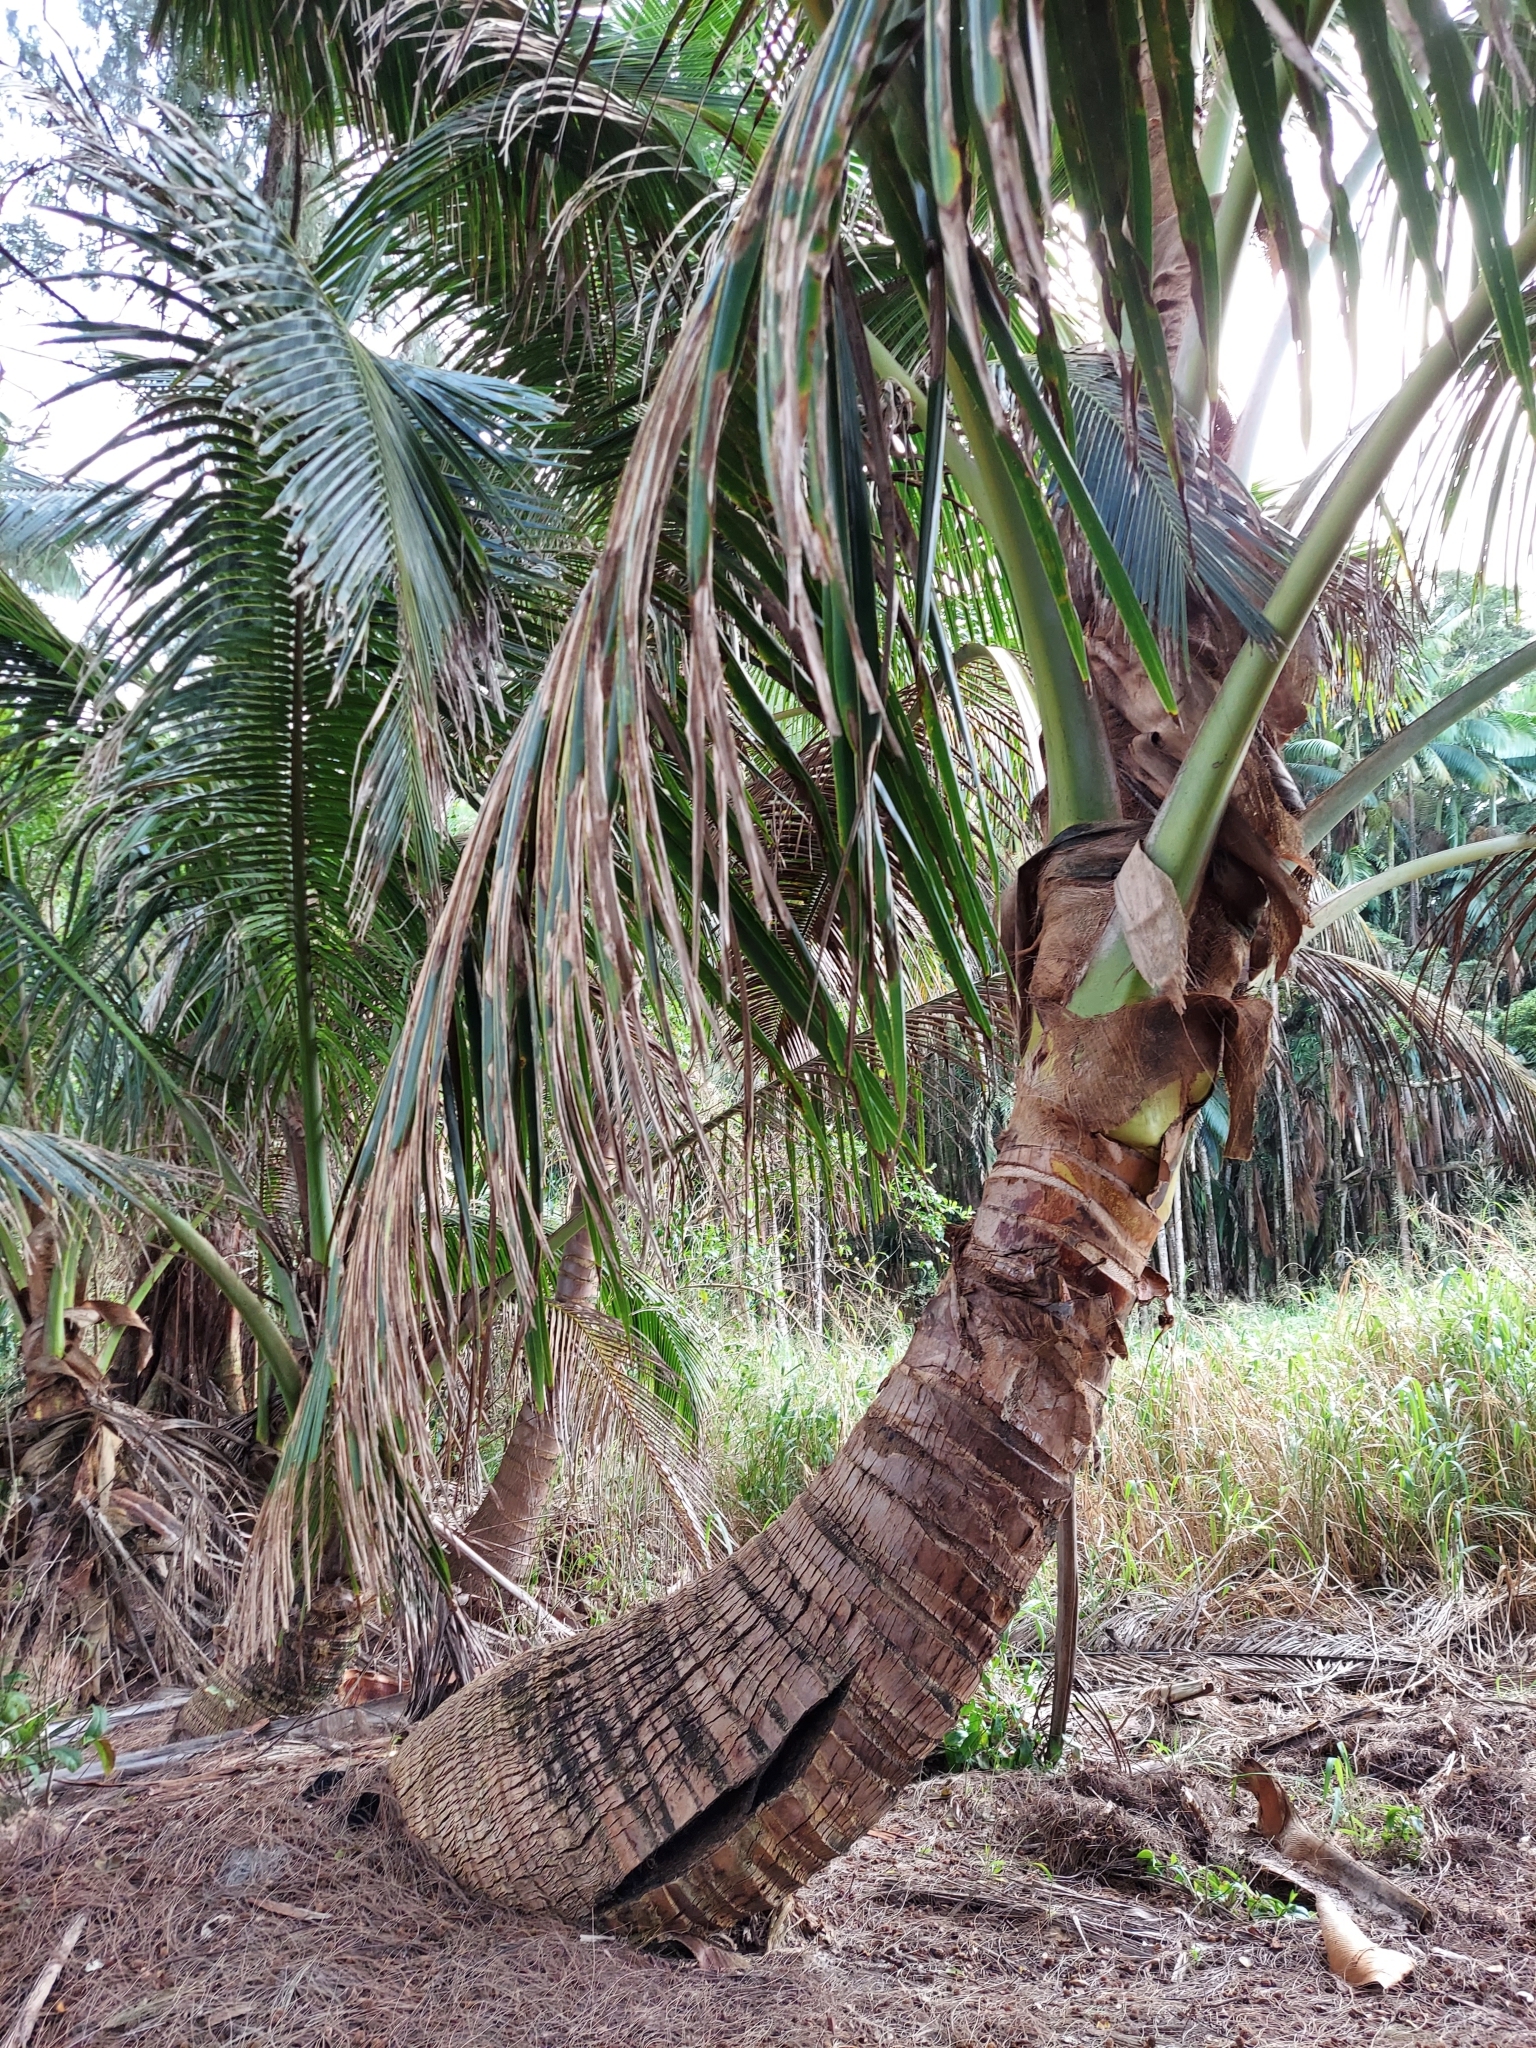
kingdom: Plantae
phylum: Tracheophyta
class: Liliopsida
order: Arecales
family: Arecaceae
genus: Cocos
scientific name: Cocos nucifera
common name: Coconut palm
